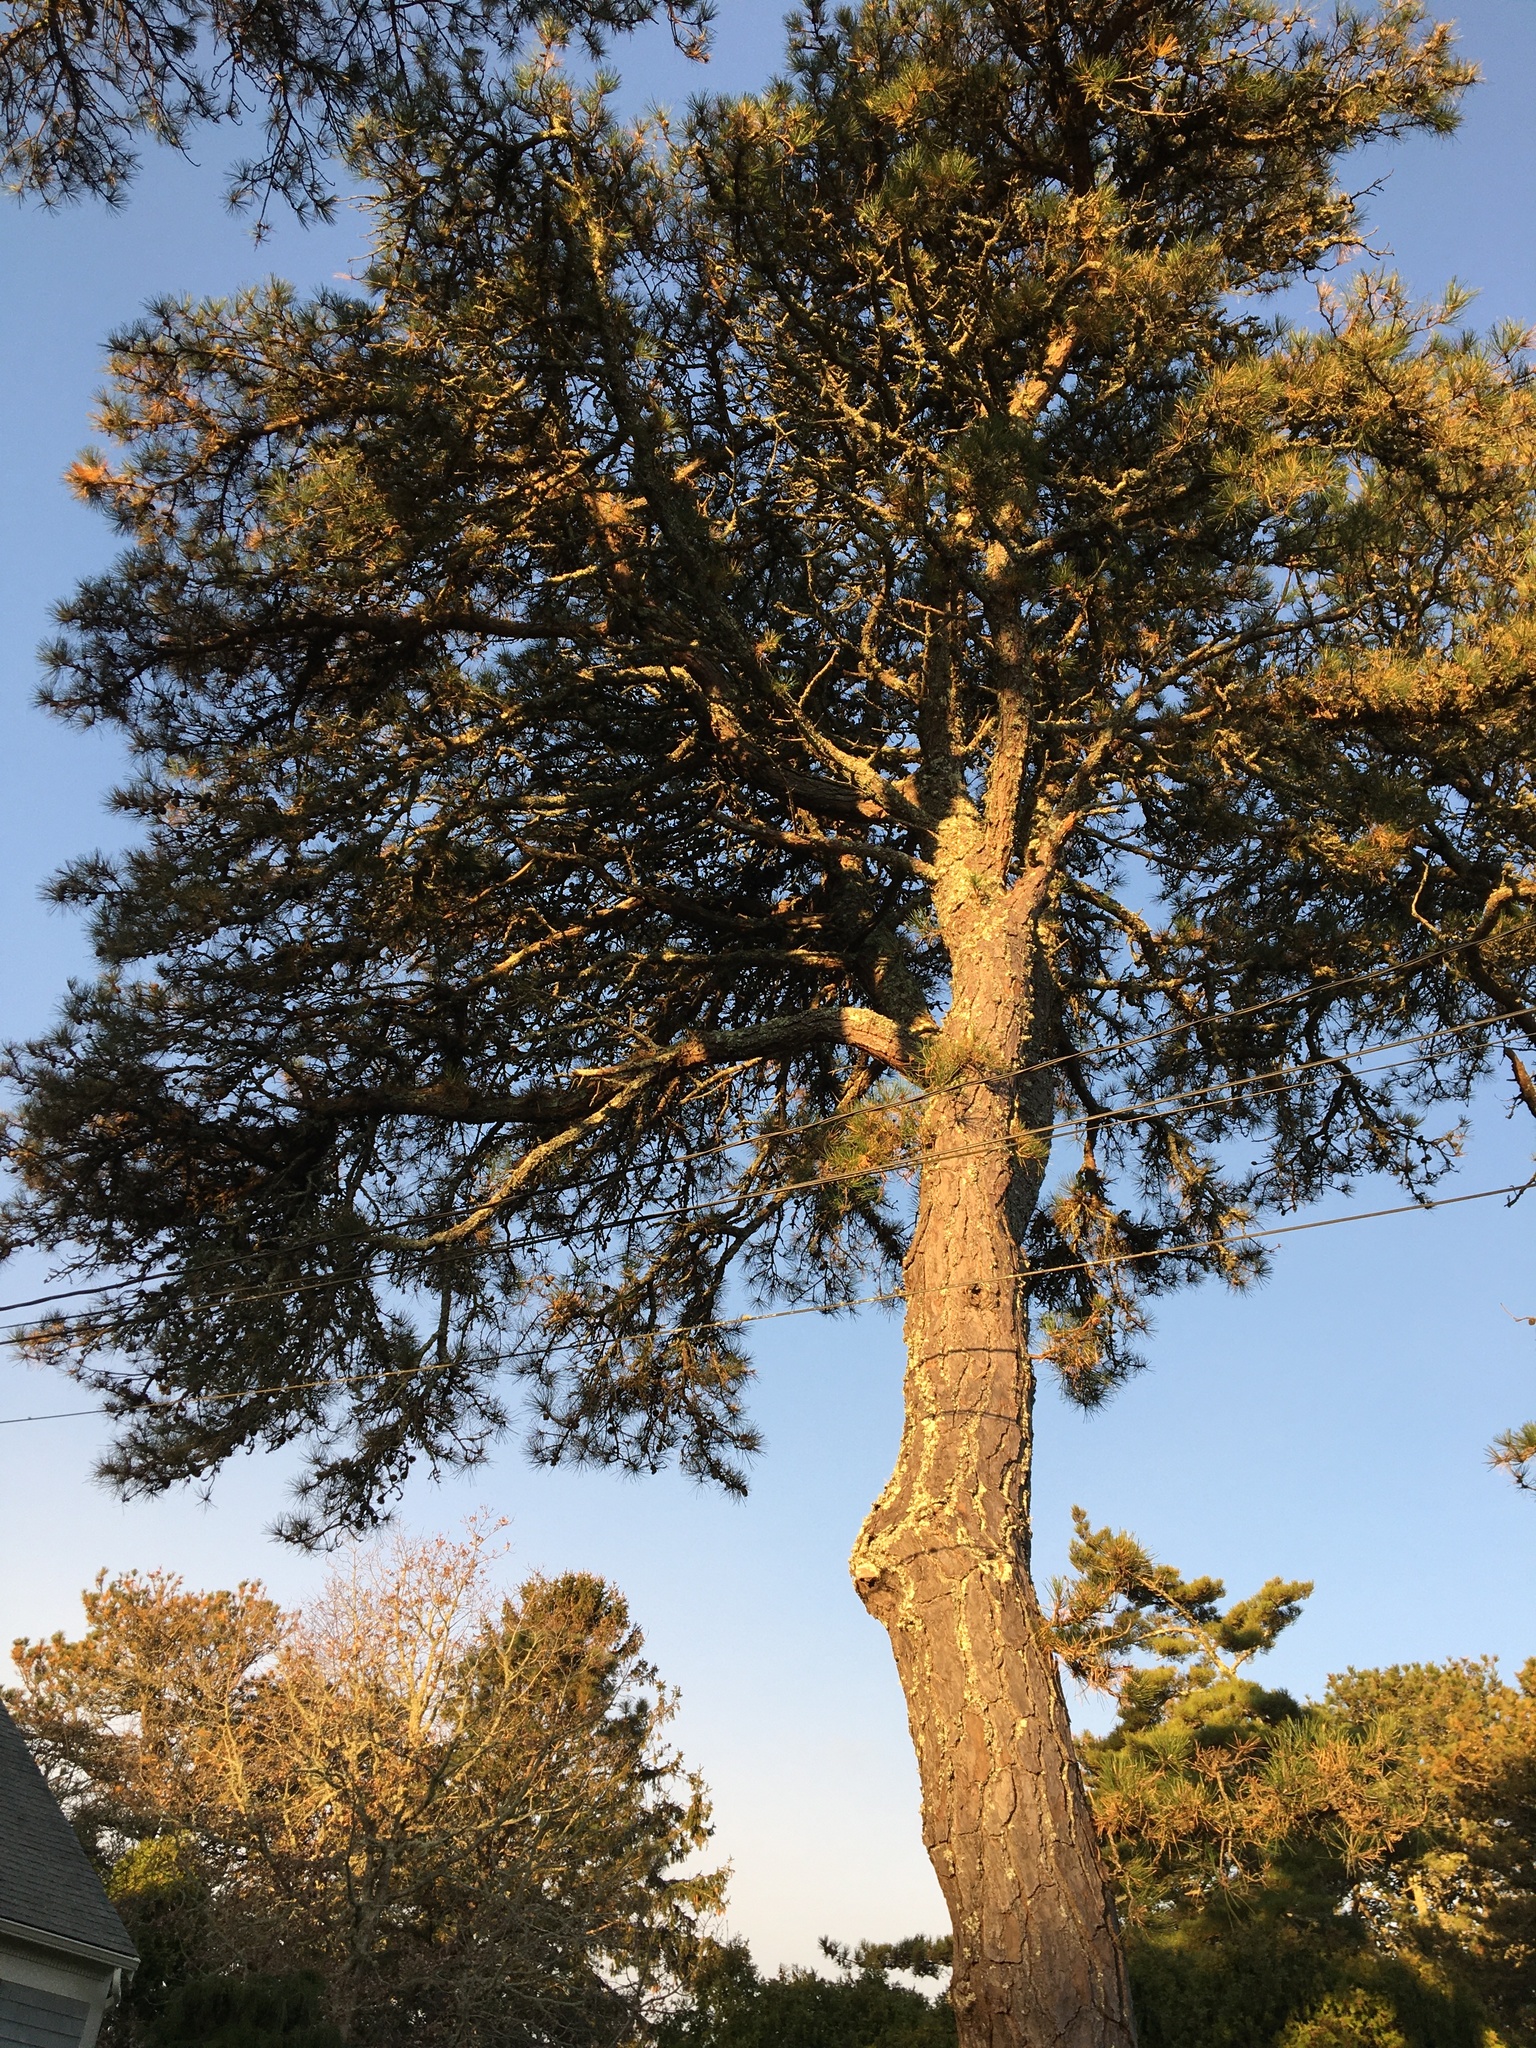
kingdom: Plantae
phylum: Tracheophyta
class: Pinopsida
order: Pinales
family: Pinaceae
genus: Pinus
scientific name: Pinus rigida
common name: Pitch pine
